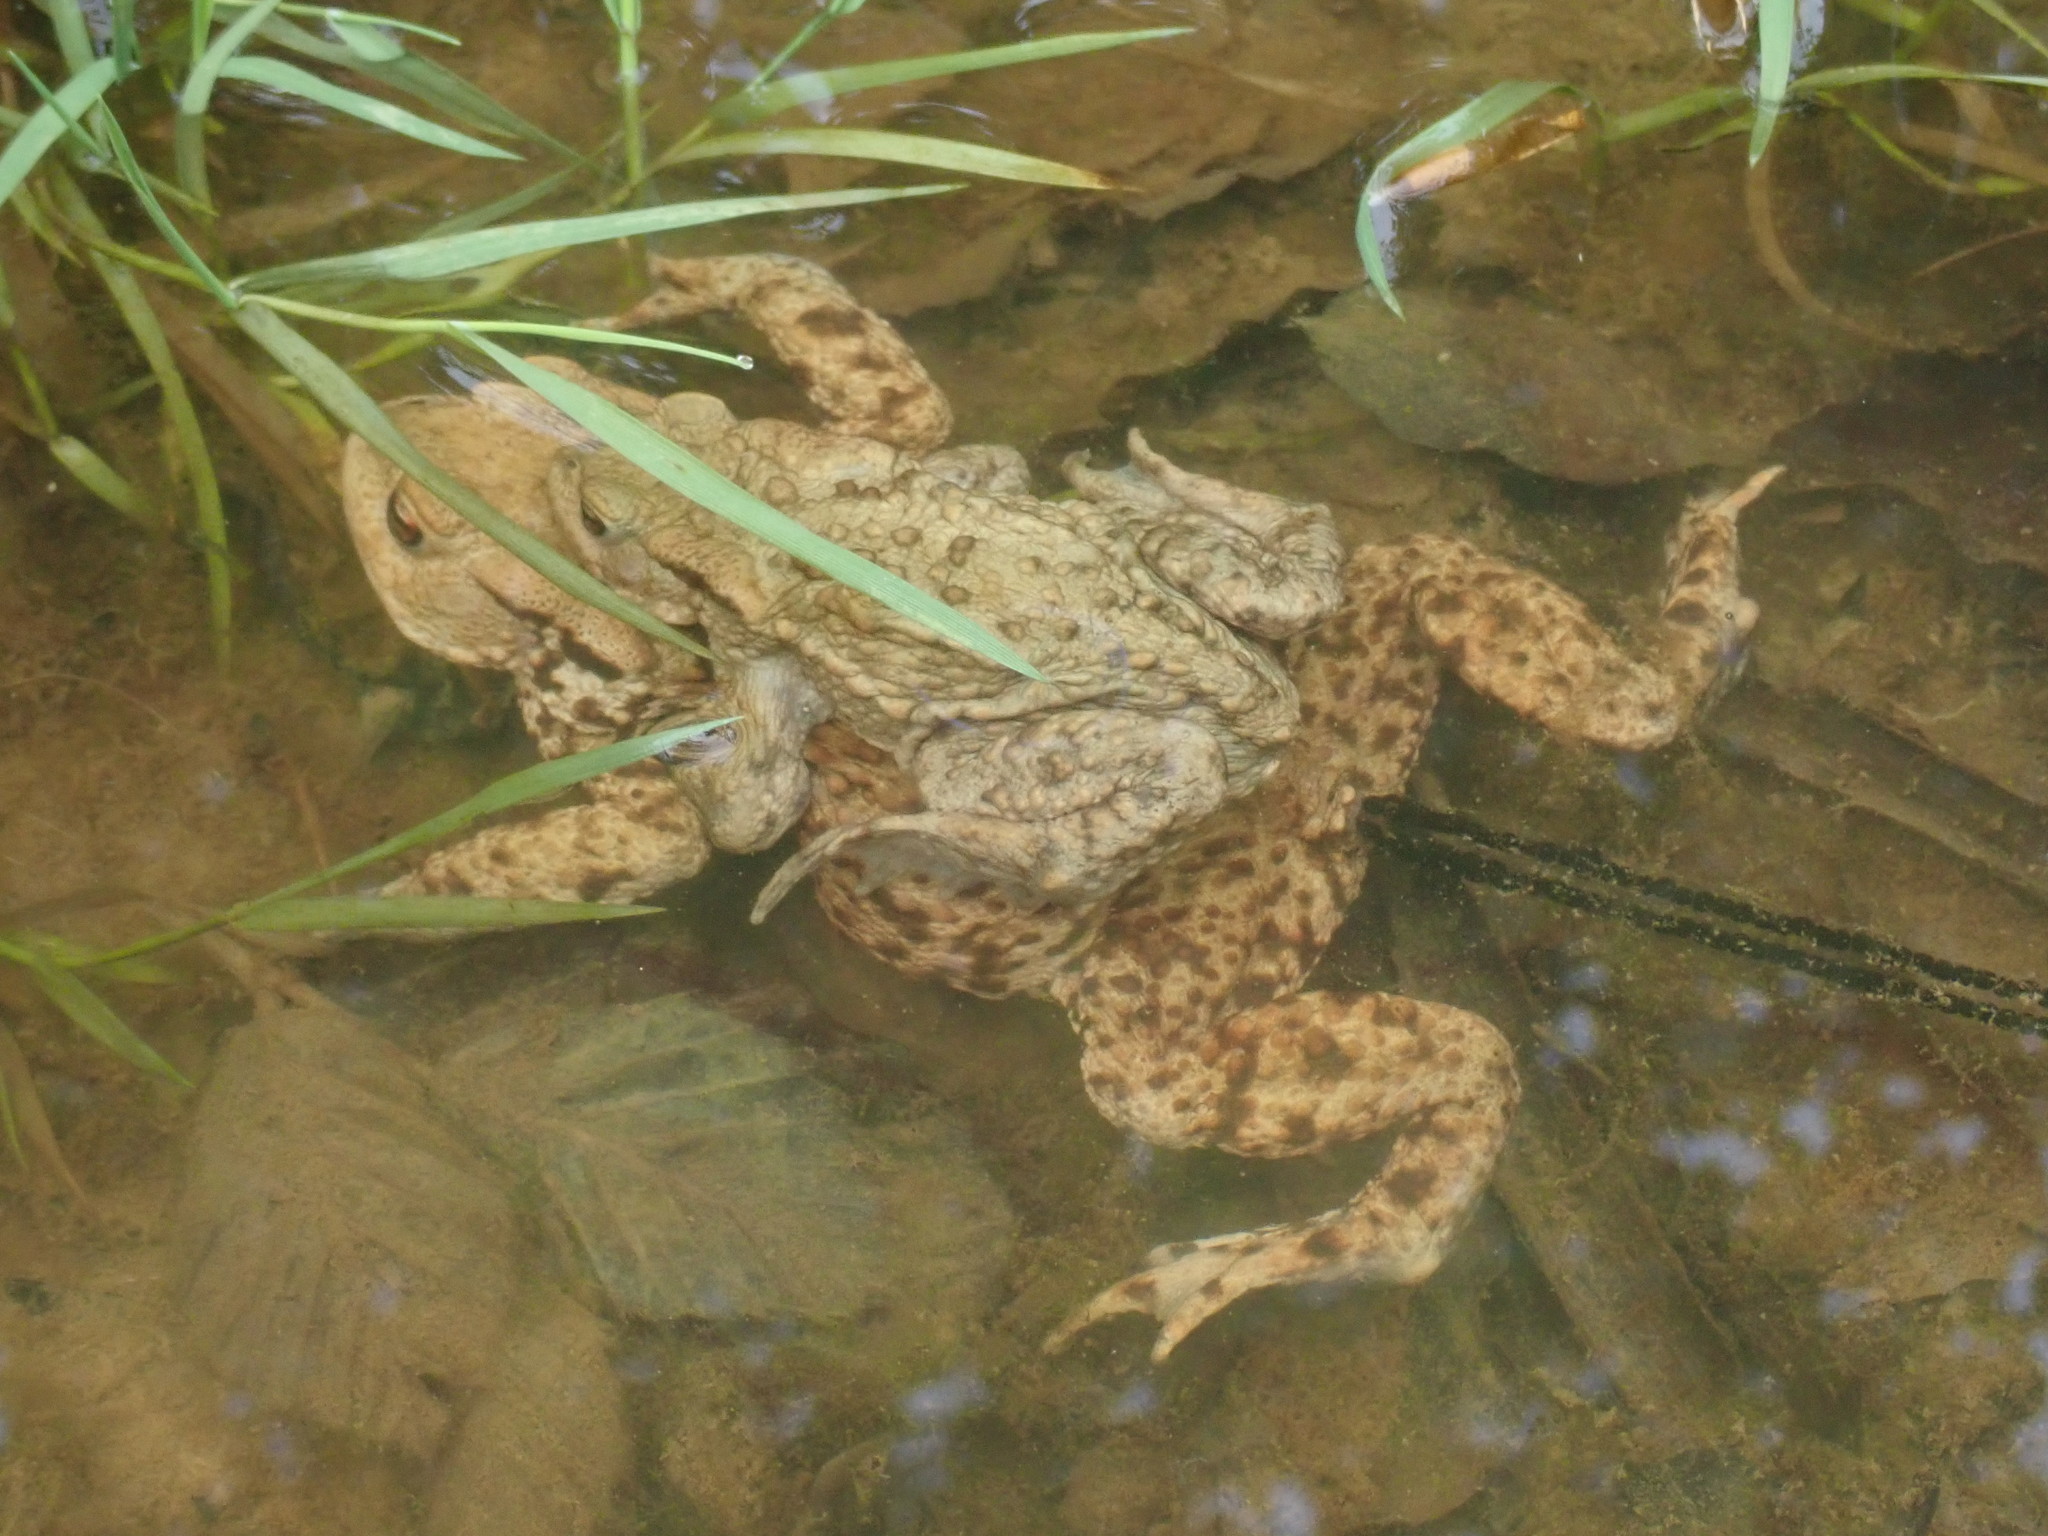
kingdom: Animalia
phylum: Chordata
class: Amphibia
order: Anura
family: Bufonidae
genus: Bufo
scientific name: Bufo bufo
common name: Common toad
